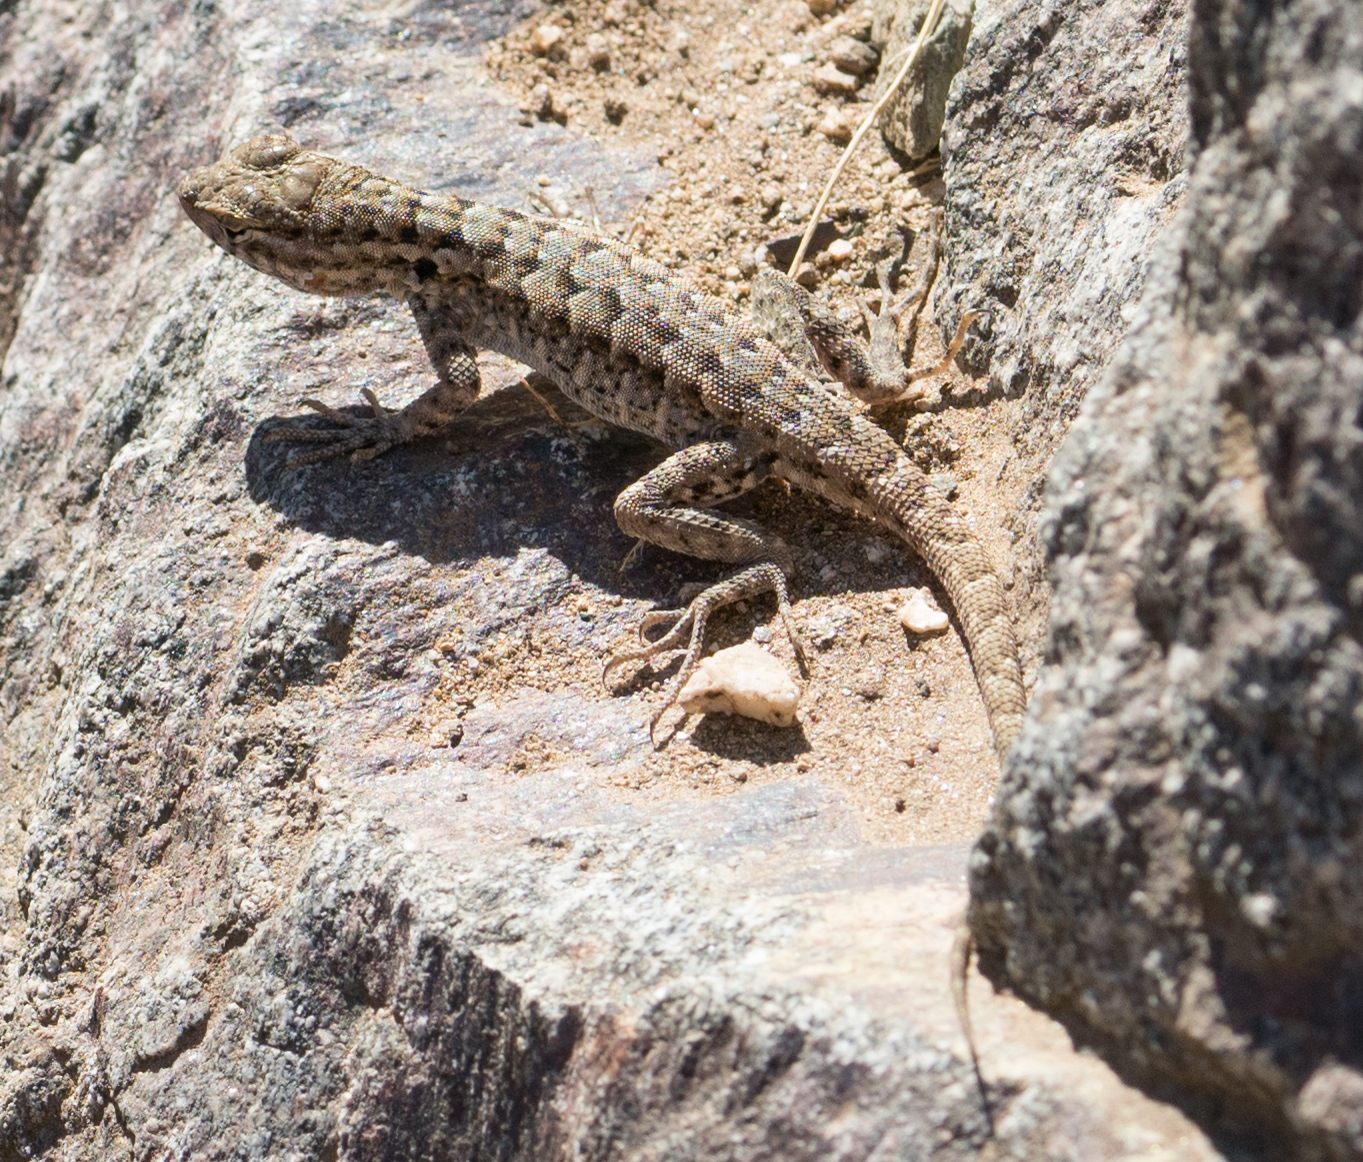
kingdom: Animalia
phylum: Chordata
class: Squamata
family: Phrynosomatidae
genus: Uta
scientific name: Uta stansburiana
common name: Side-blotched lizard
